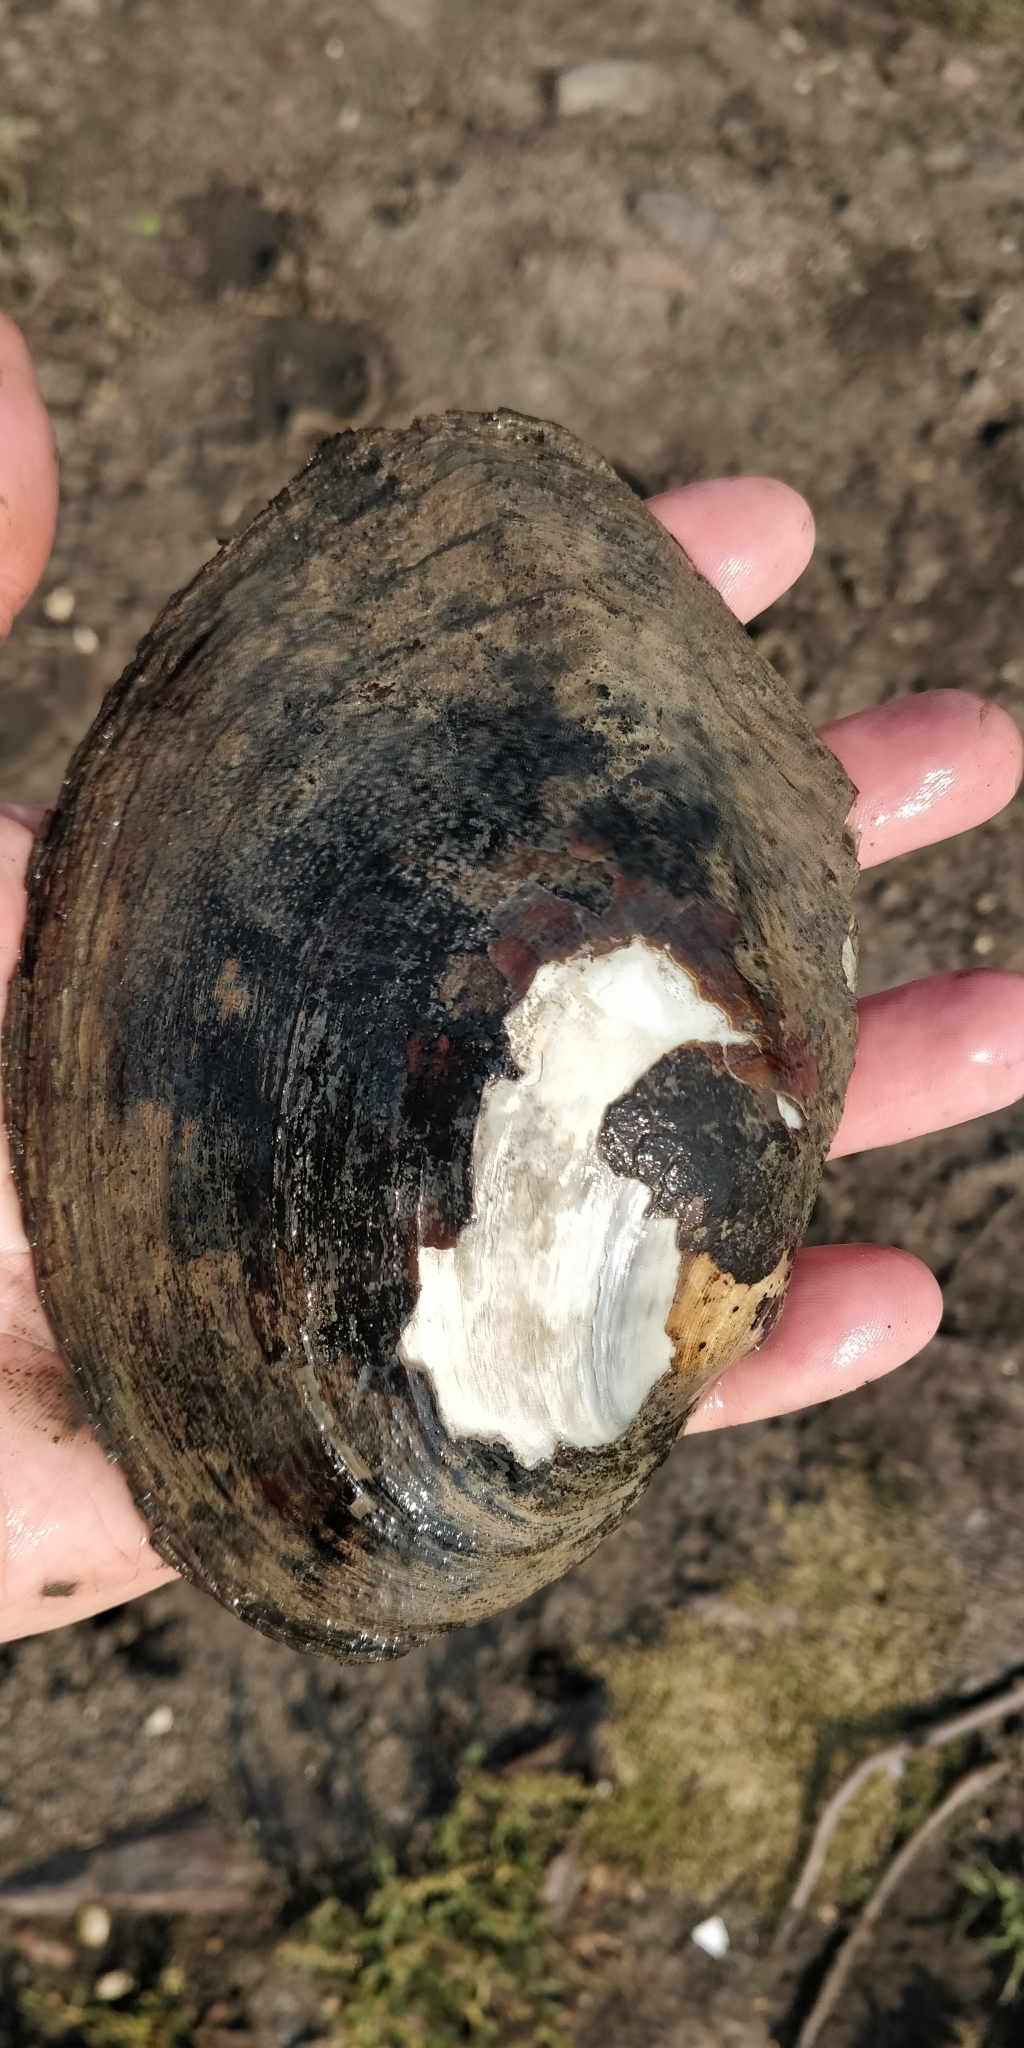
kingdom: Animalia
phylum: Mollusca
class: Bivalvia
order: Unionida
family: Unionidae
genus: Lasmigona
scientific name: Lasmigona complanata
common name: White heelsplitter
